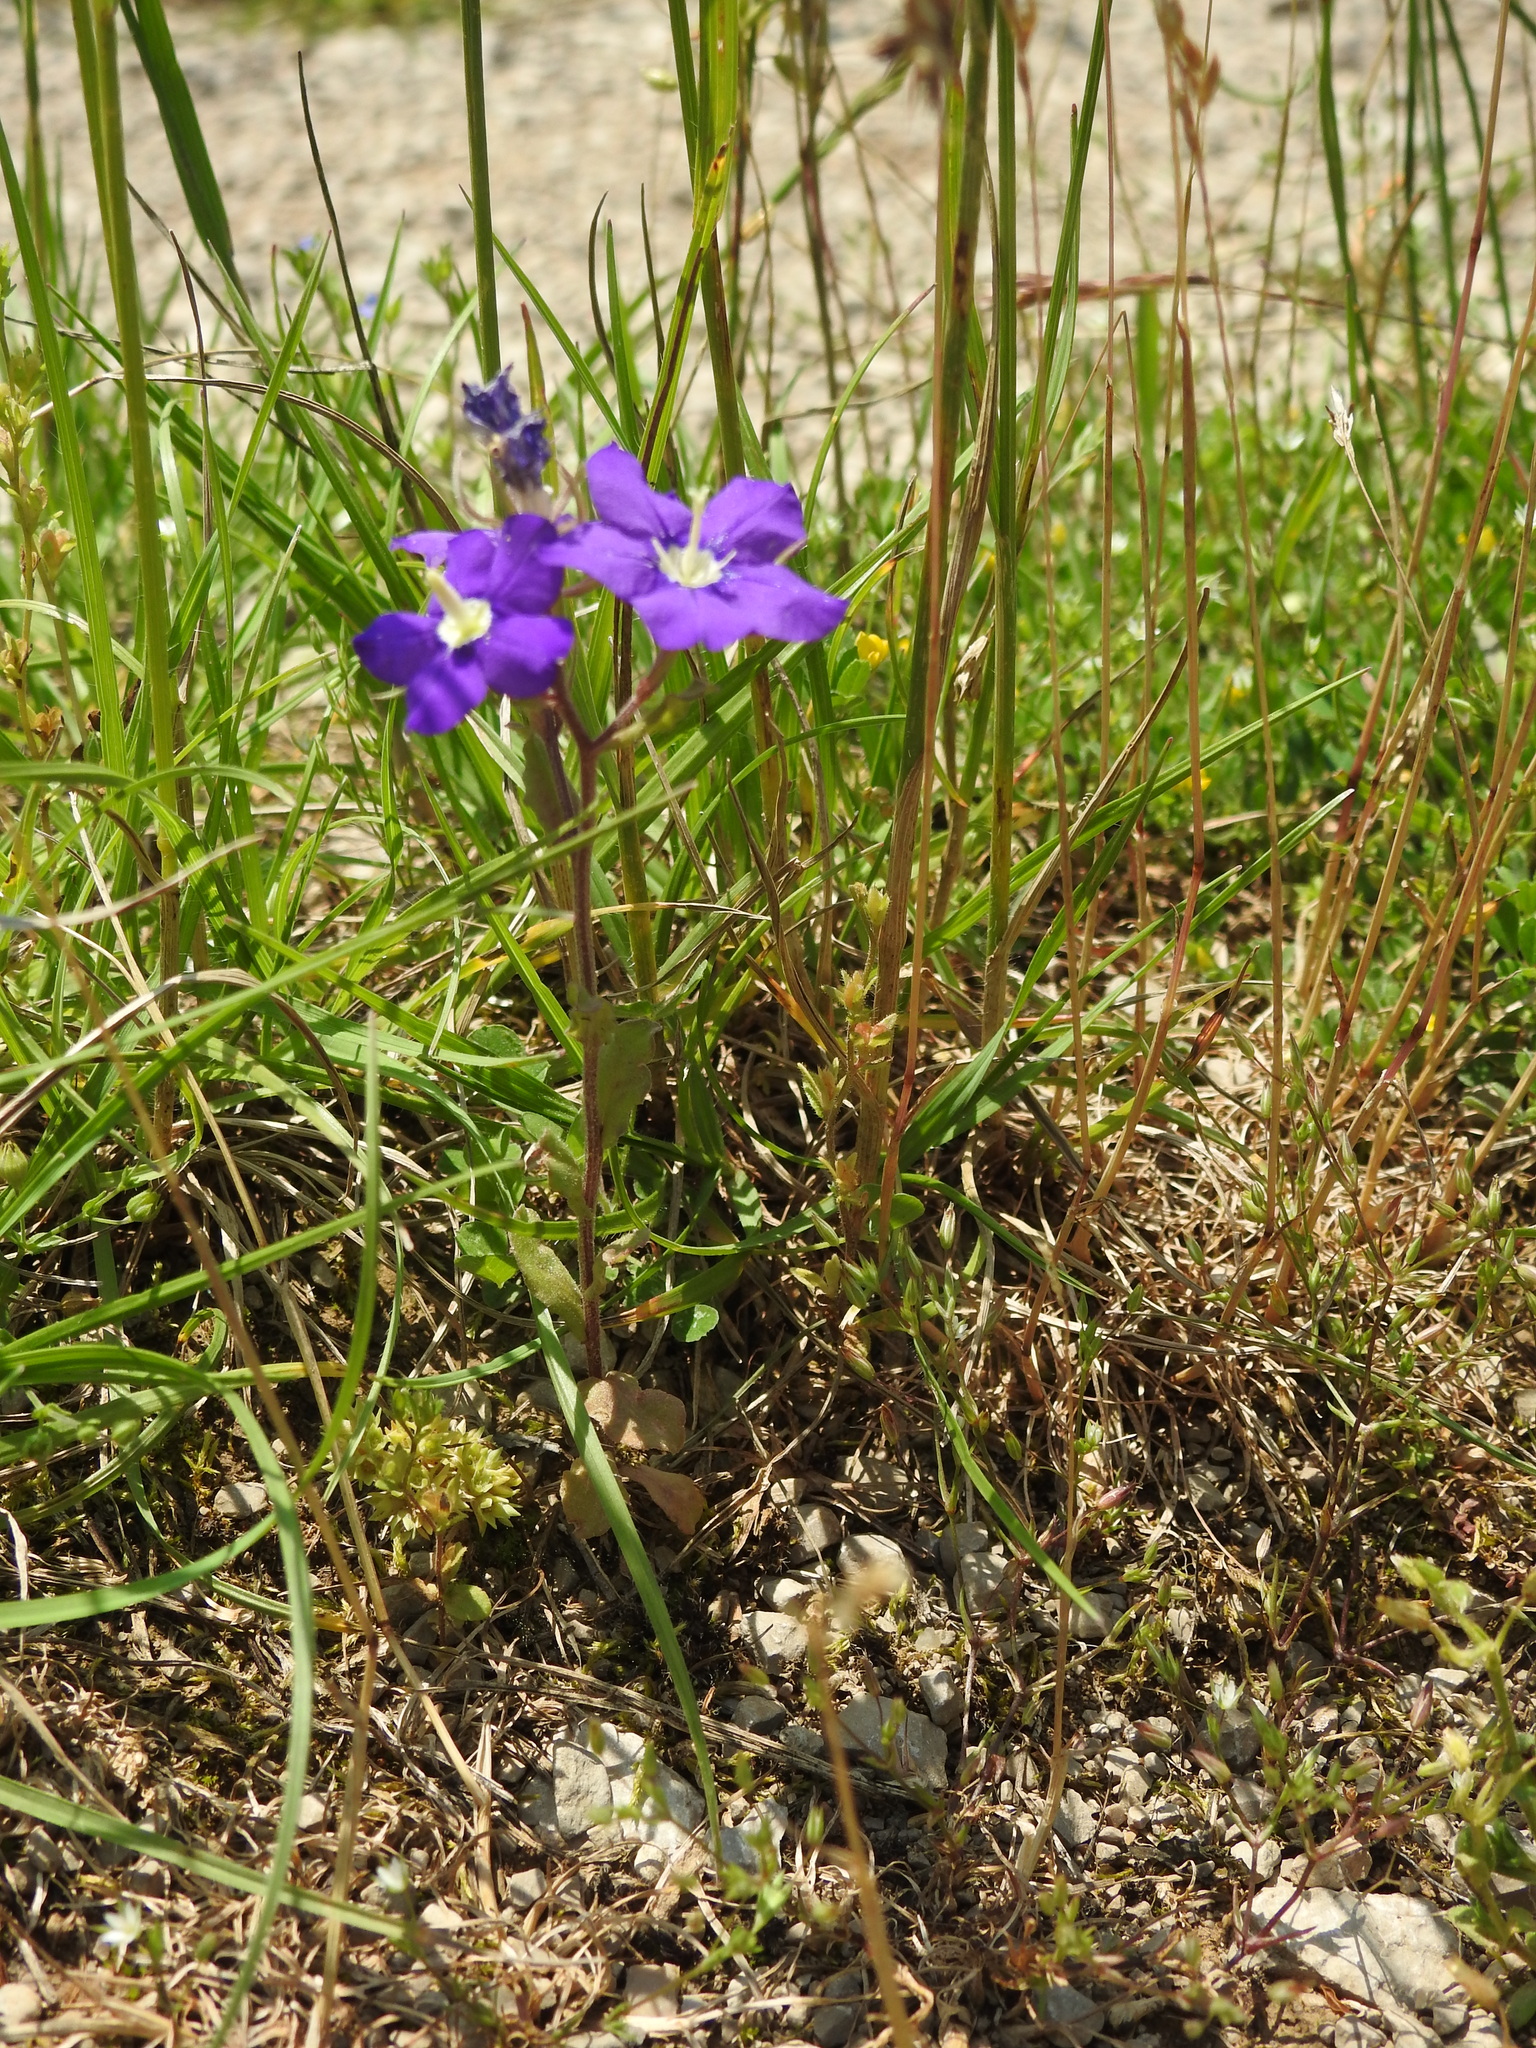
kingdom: Plantae
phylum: Tracheophyta
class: Magnoliopsida
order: Asterales
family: Campanulaceae
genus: Legousia
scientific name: Legousia speculum-veneris
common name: Large venus's-looking-glass
